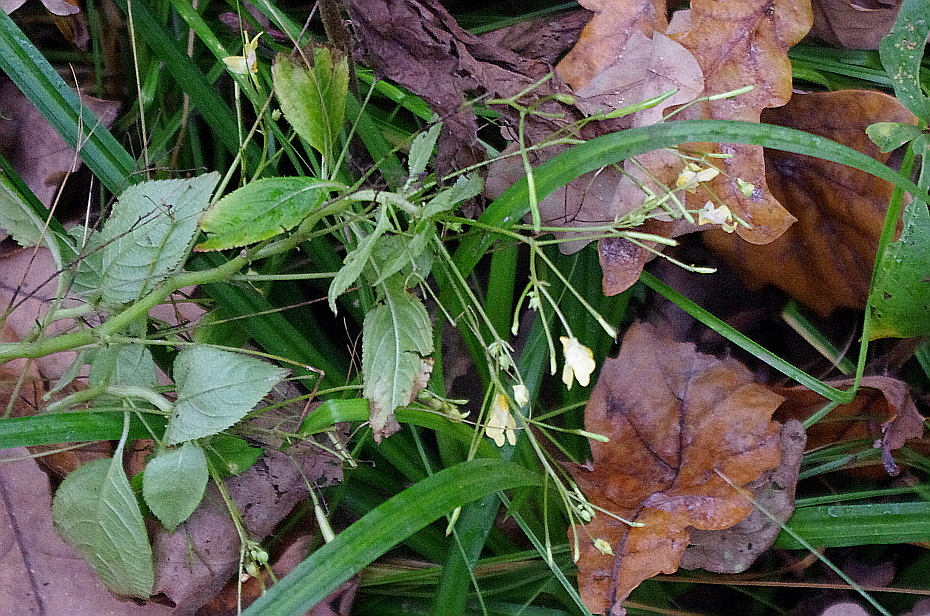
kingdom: Plantae
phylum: Tracheophyta
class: Magnoliopsida
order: Ericales
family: Balsaminaceae
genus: Impatiens
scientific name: Impatiens parviflora
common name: Small balsam
